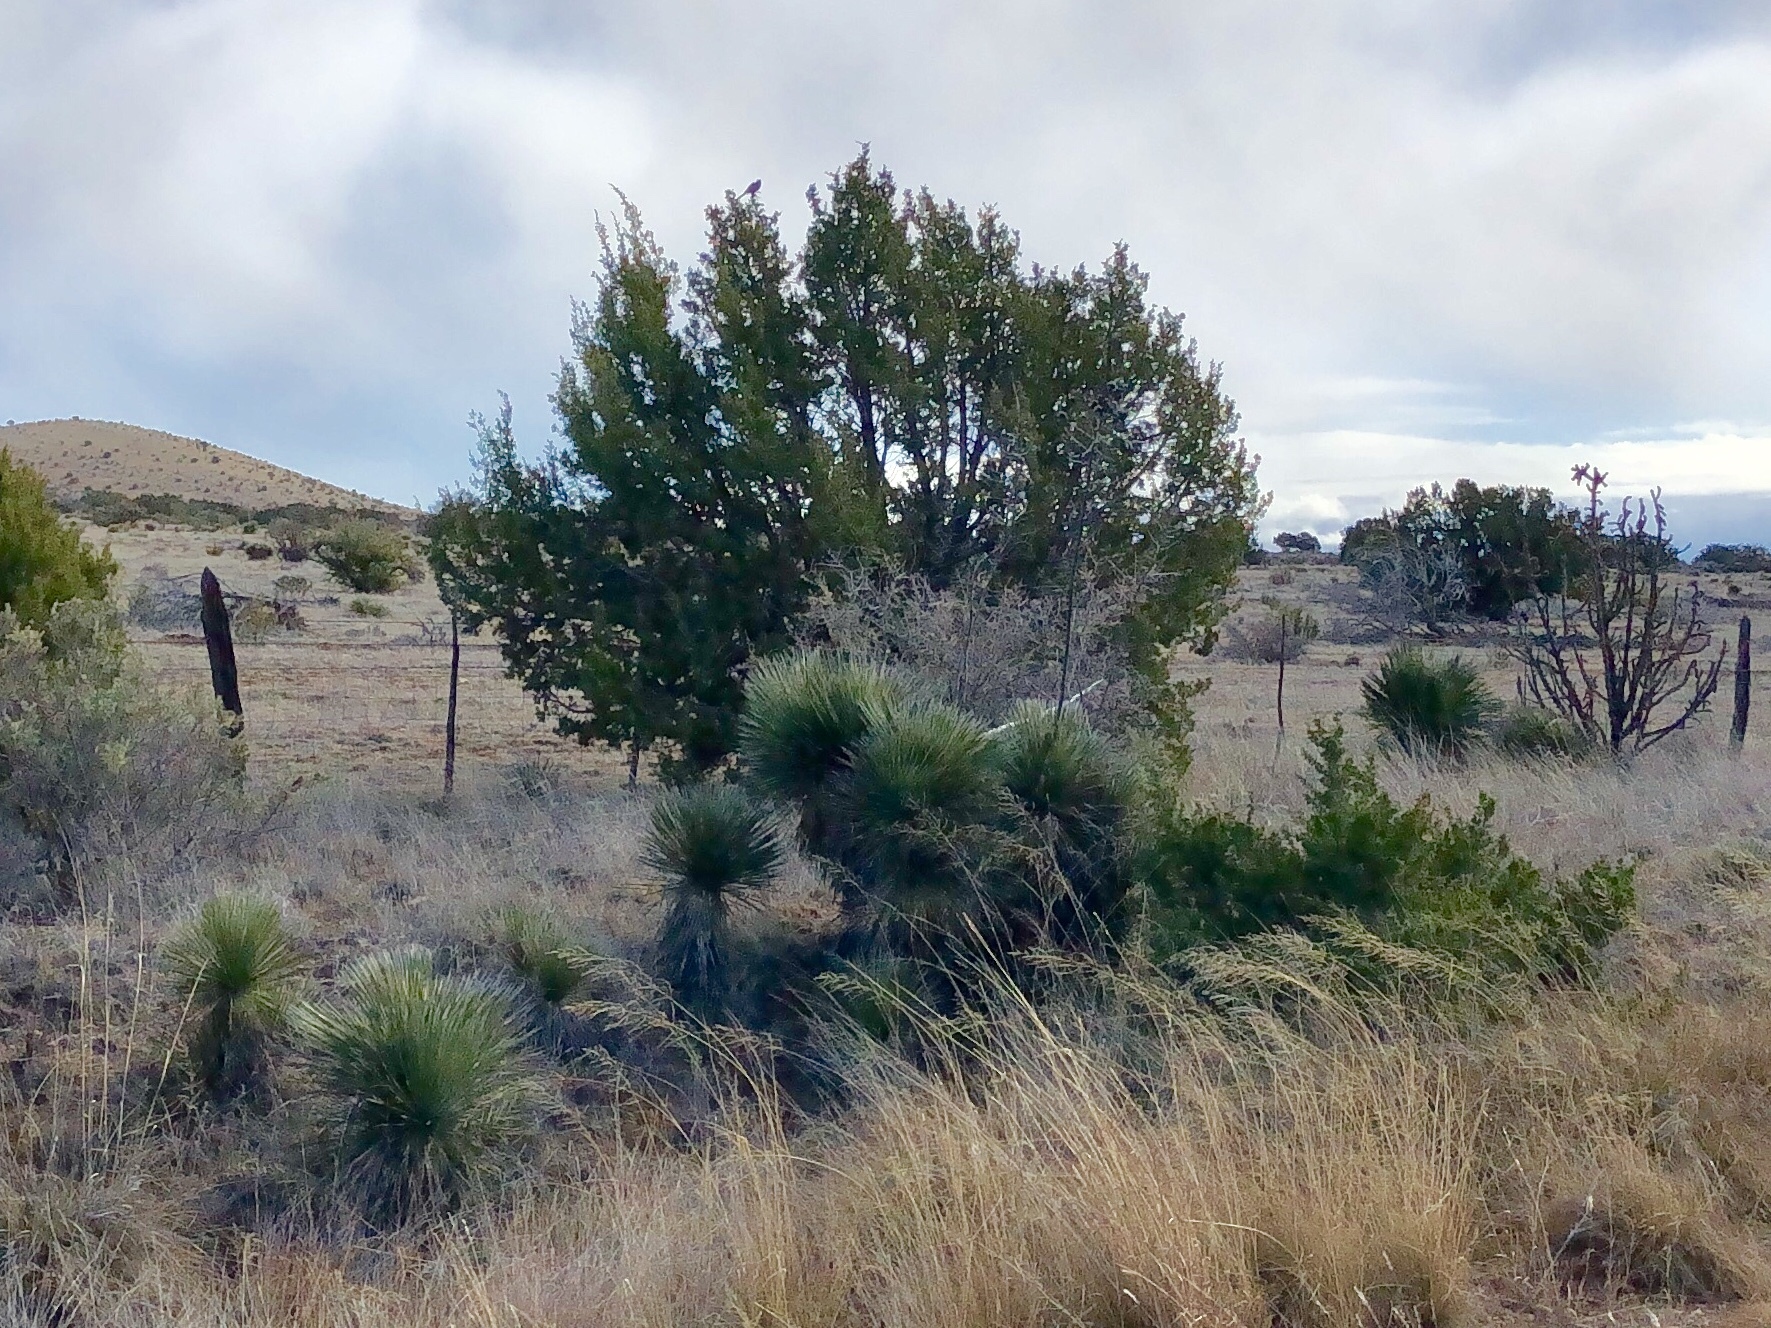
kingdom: Plantae
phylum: Tracheophyta
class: Liliopsida
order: Asparagales
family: Asparagaceae
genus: Yucca
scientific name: Yucca elata
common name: Palmella
